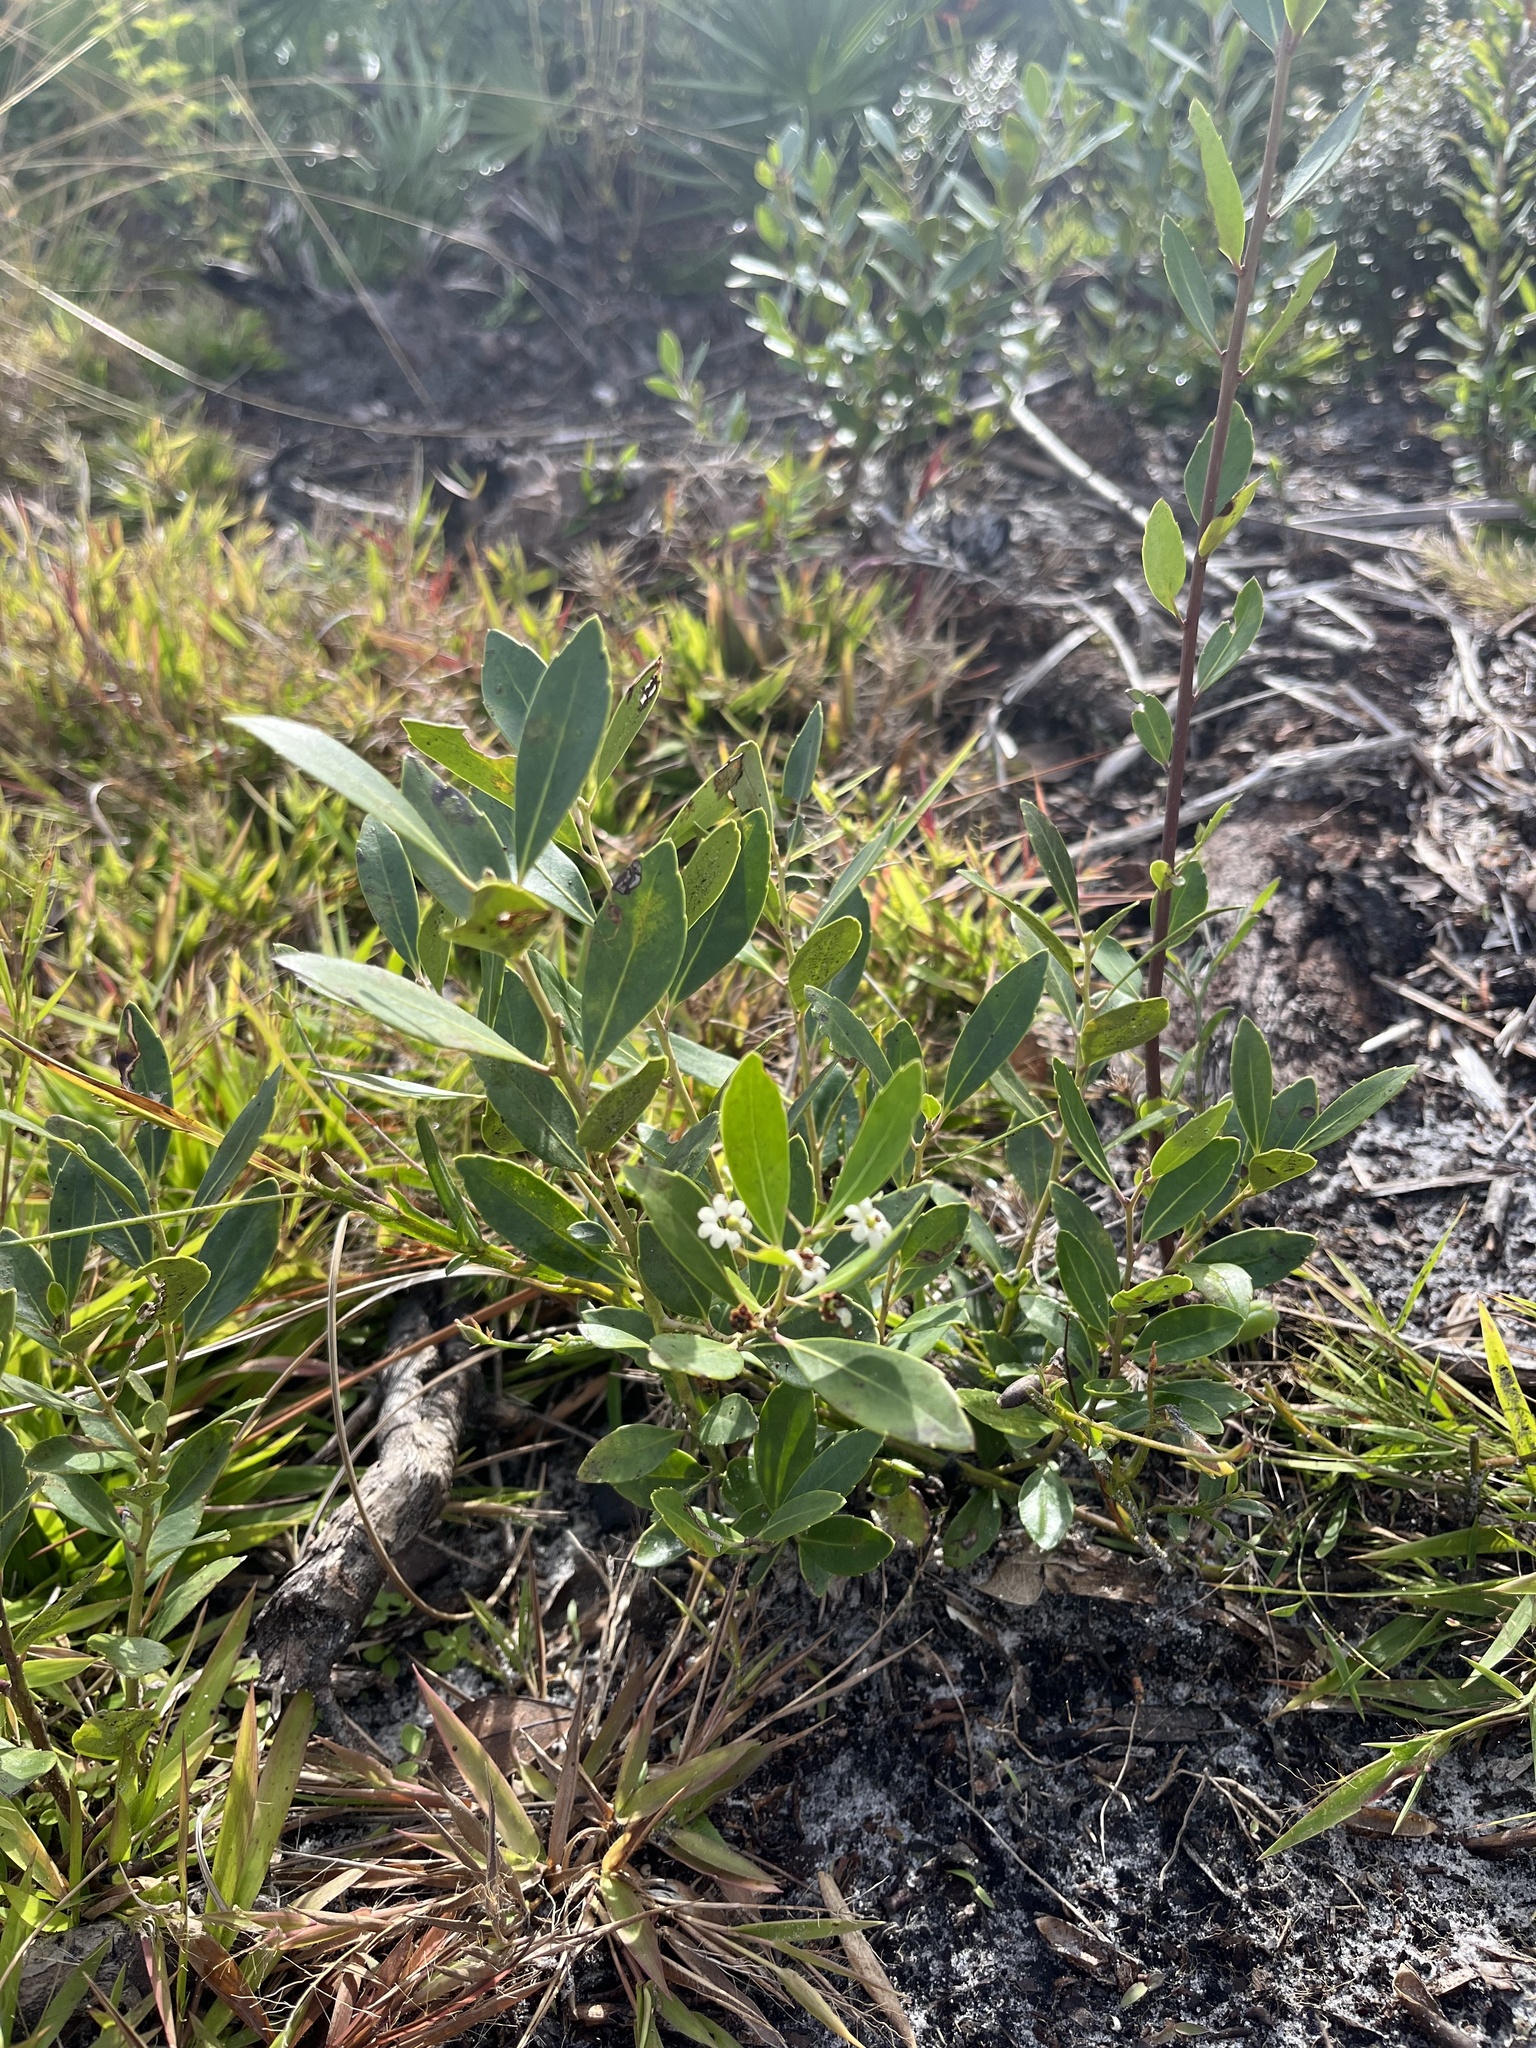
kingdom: Plantae
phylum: Tracheophyta
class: Magnoliopsida
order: Aquifoliales
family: Aquifoliaceae
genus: Ilex
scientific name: Ilex glabra
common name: Bitter gallberry
